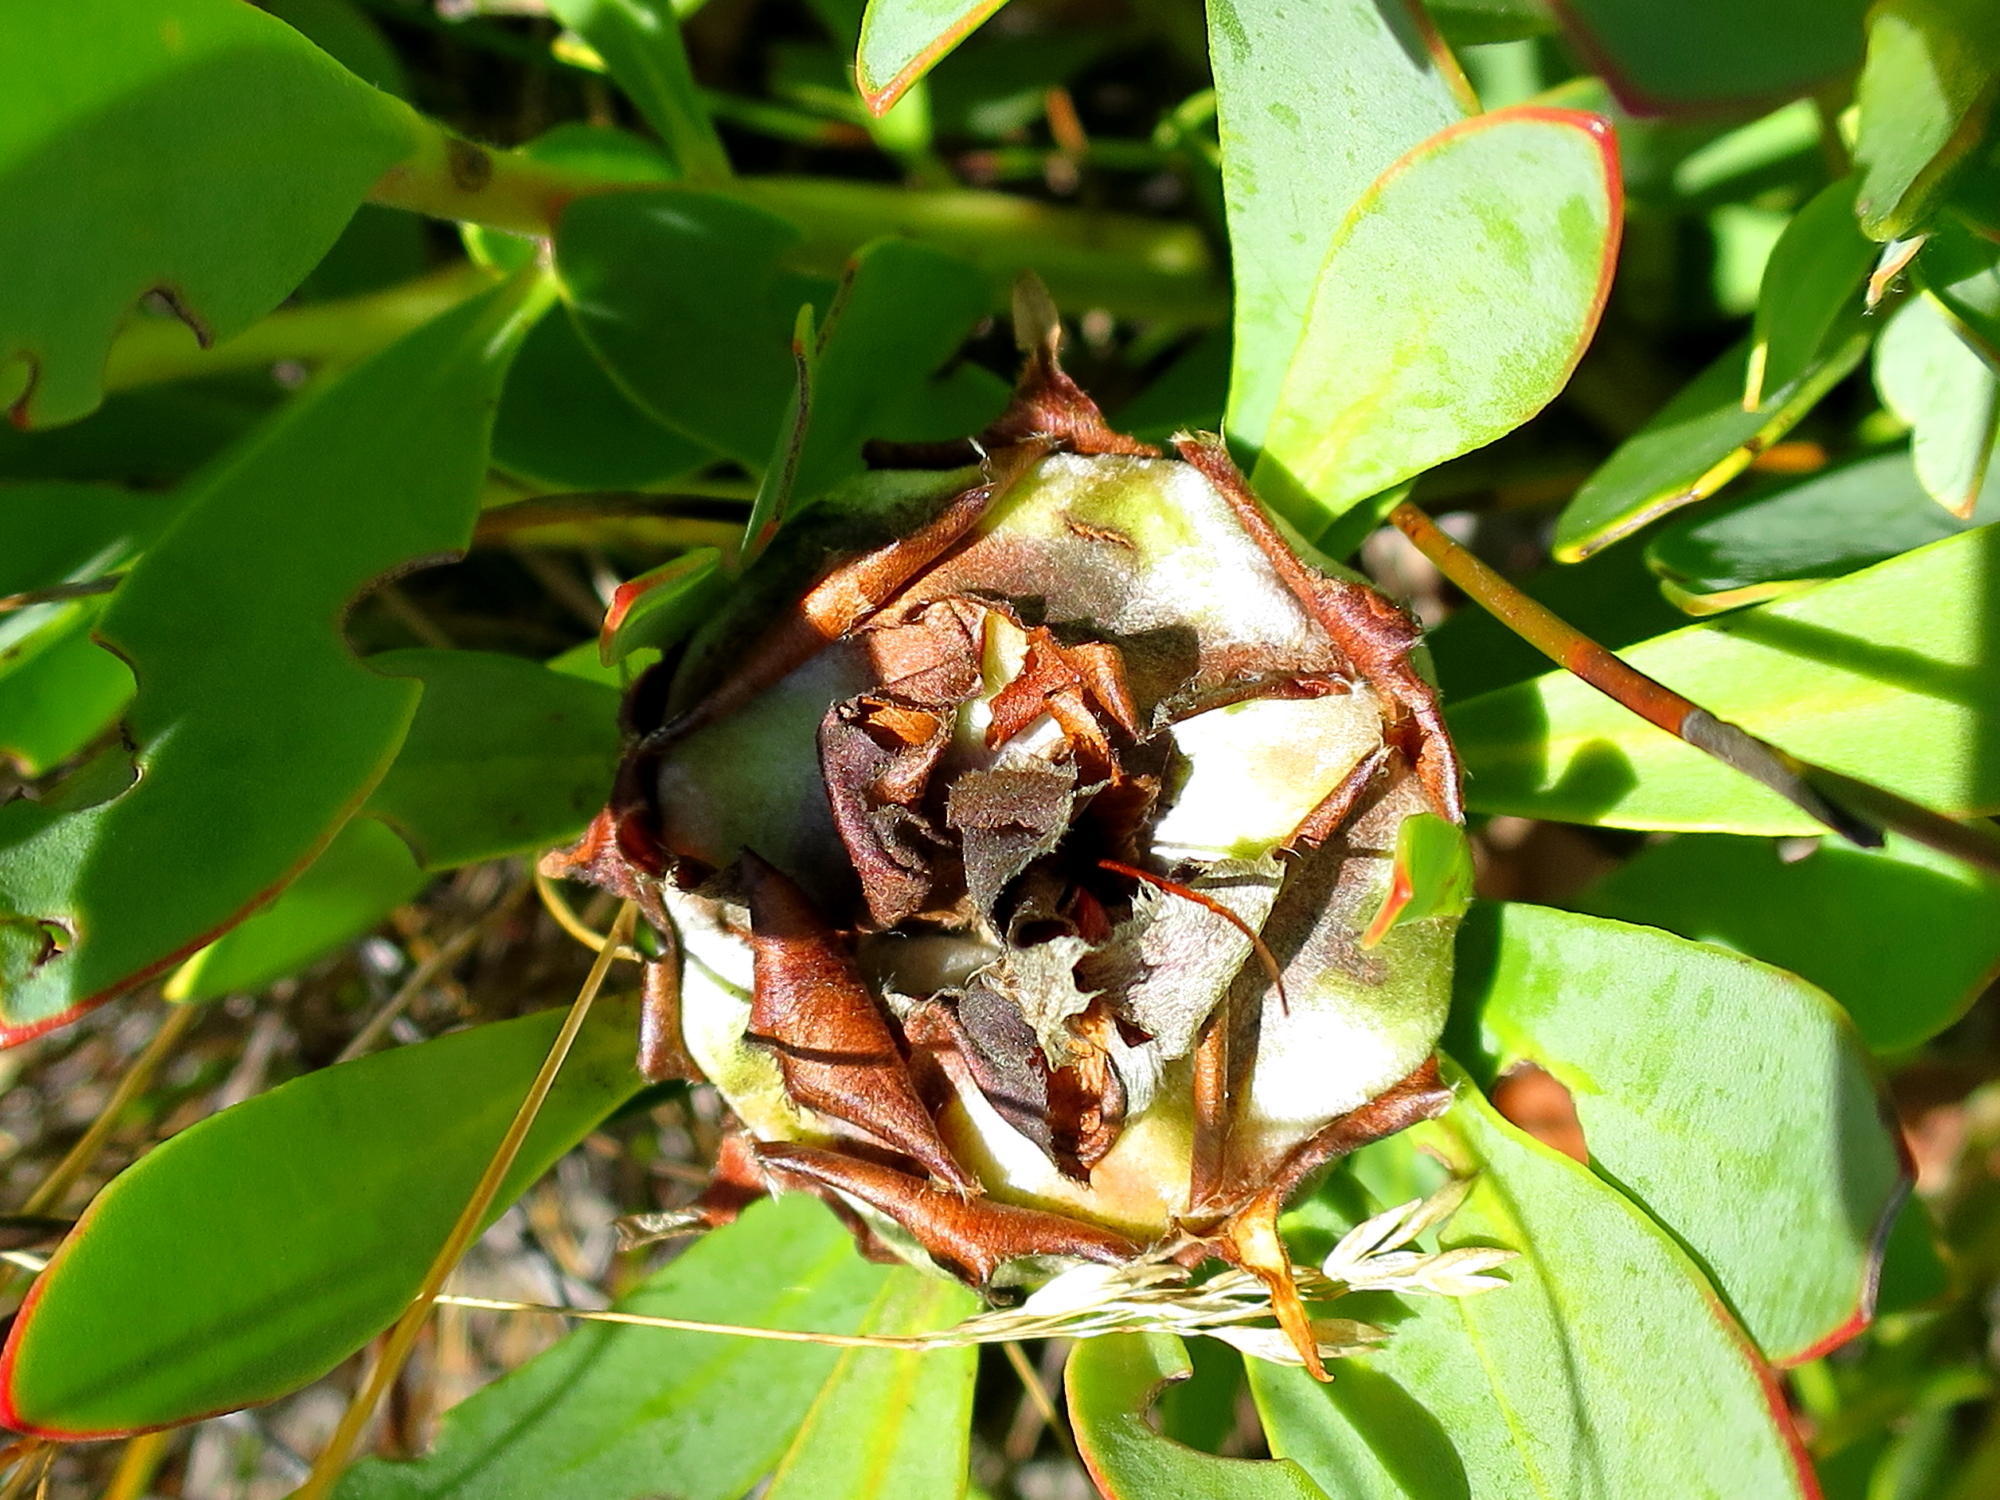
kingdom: Plantae
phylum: Tracheophyta
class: Magnoliopsida
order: Proteales
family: Proteaceae
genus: Protea
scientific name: Protea venusta
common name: Cascade sugarbush
